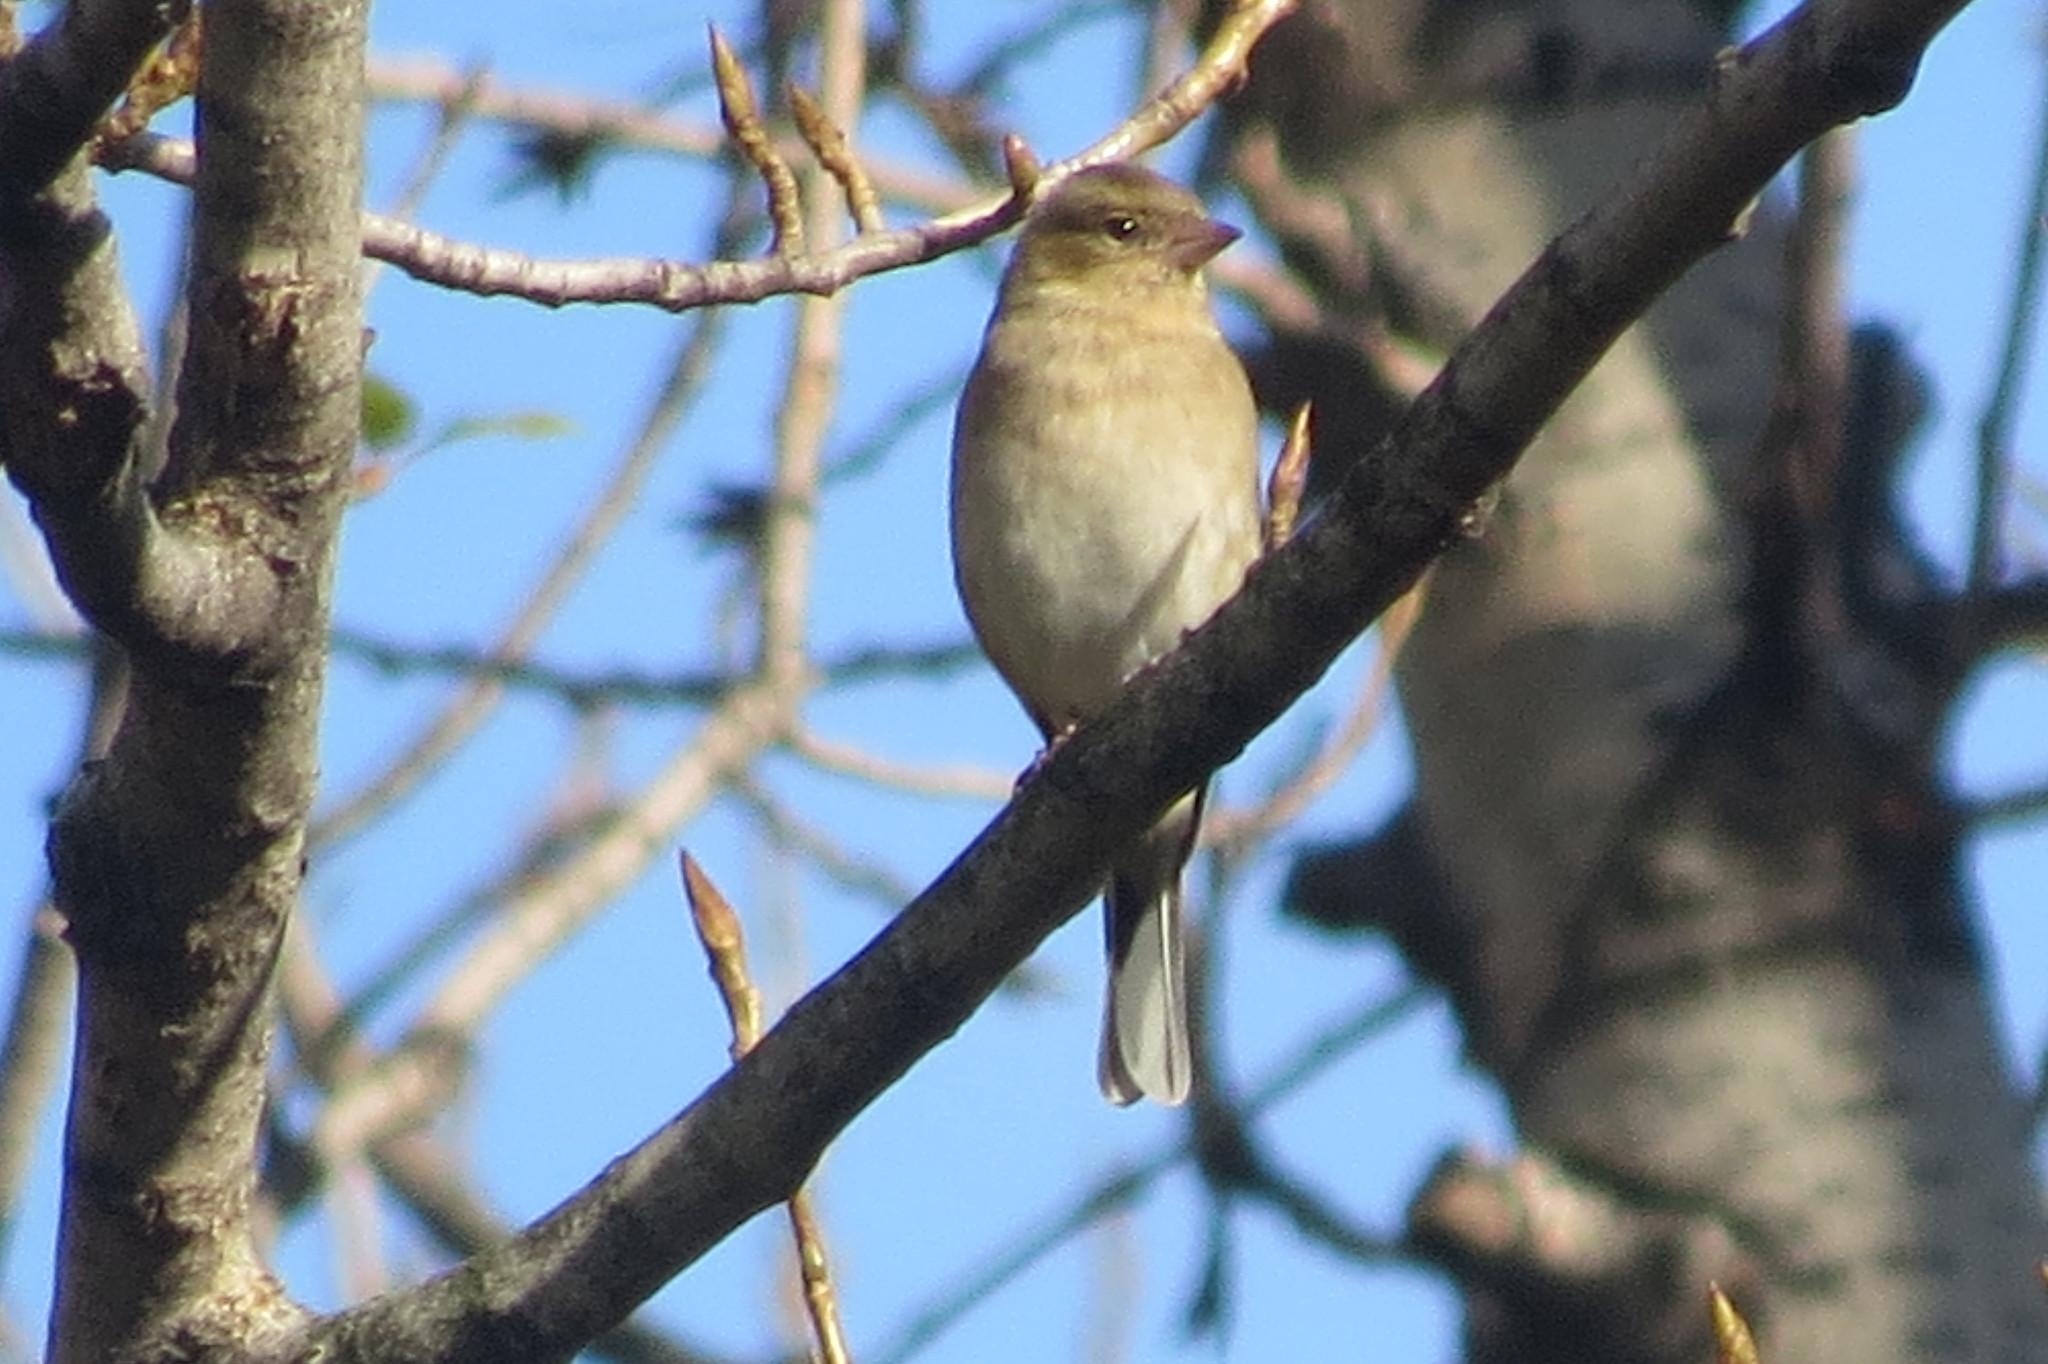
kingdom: Animalia
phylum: Chordata
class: Aves
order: Passeriformes
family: Fringillidae
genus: Fringilla
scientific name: Fringilla coelebs
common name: Common chaffinch
